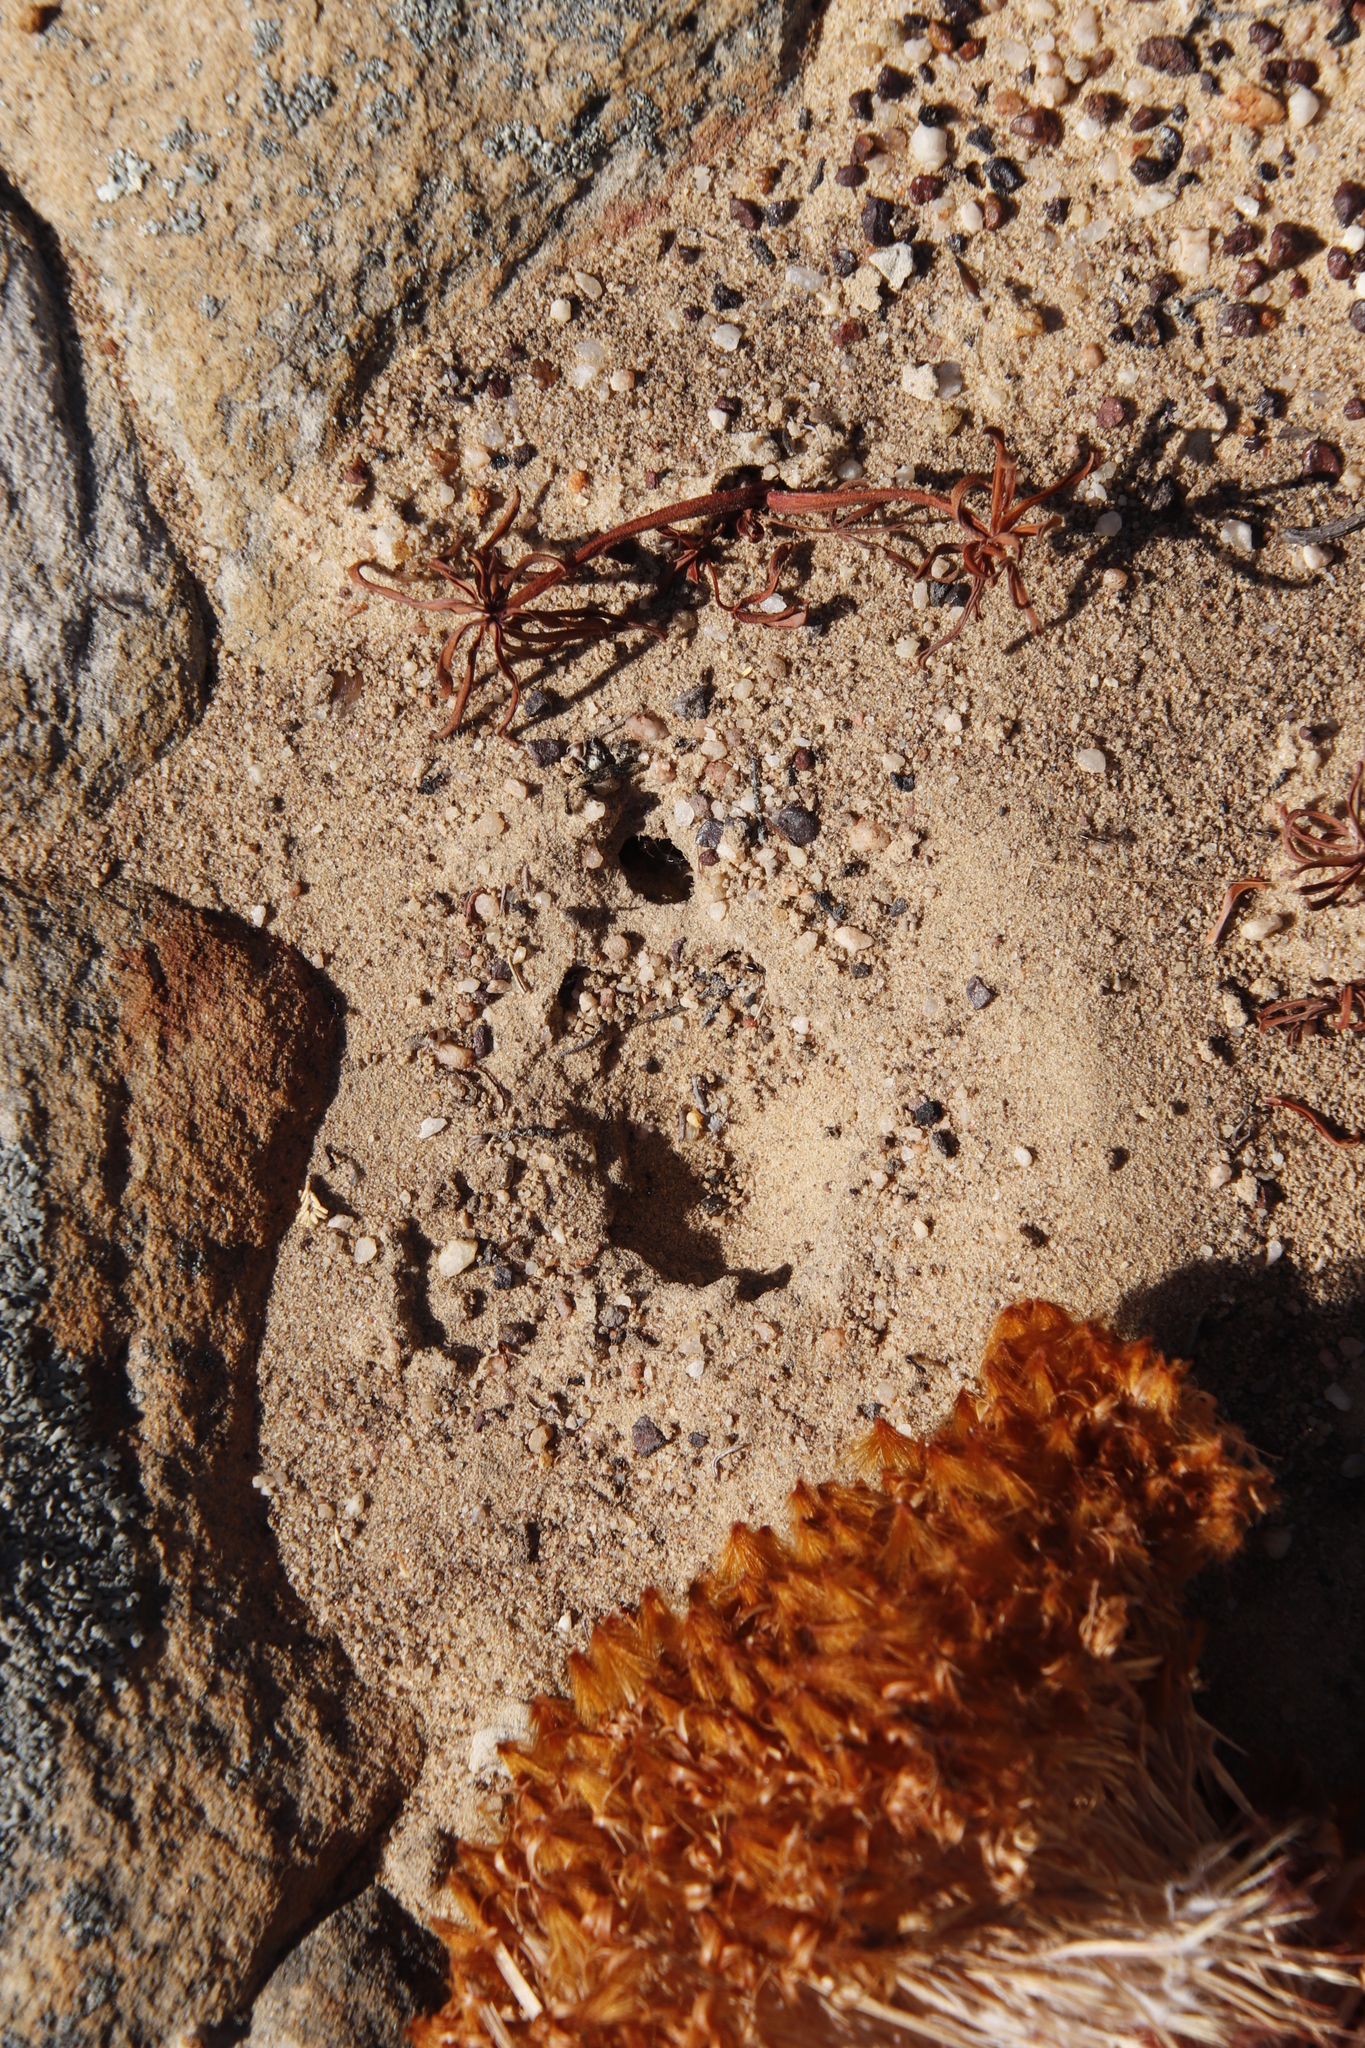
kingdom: Animalia
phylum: Arthropoda
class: Insecta
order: Hymenoptera
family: Formicidae
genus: Anoplolepis
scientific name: Anoplolepis steingroeveri
